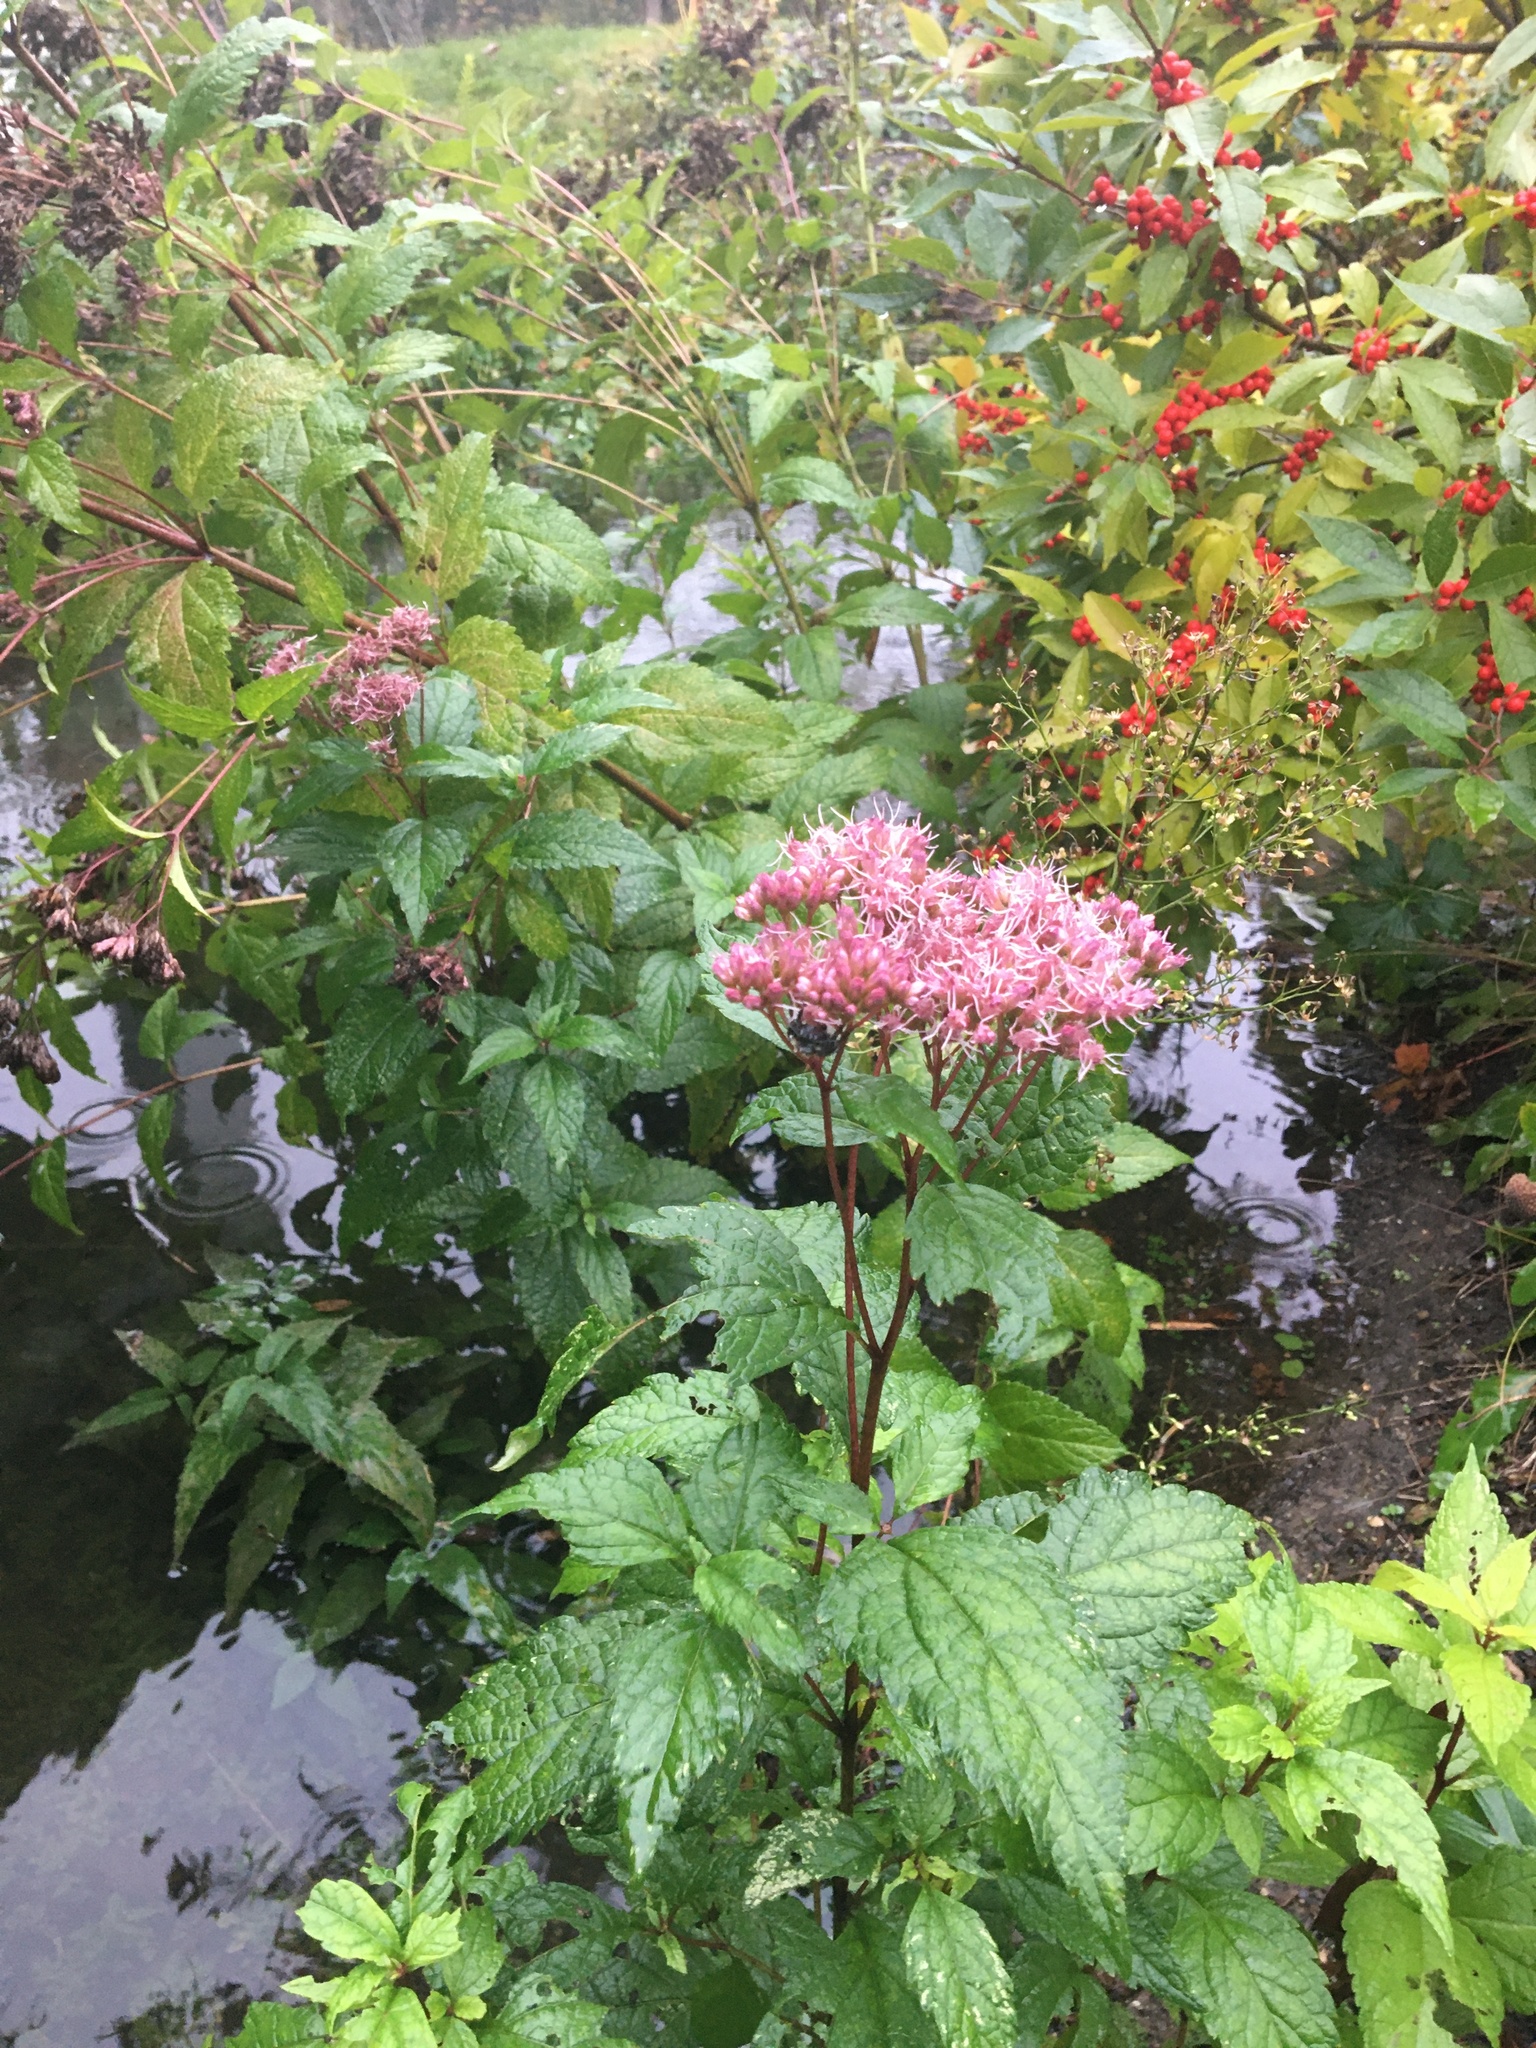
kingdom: Plantae
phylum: Tracheophyta
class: Magnoliopsida
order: Asterales
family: Asteraceae
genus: Eutrochium
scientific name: Eutrochium dubium
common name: Coastal plain joe pye weed
